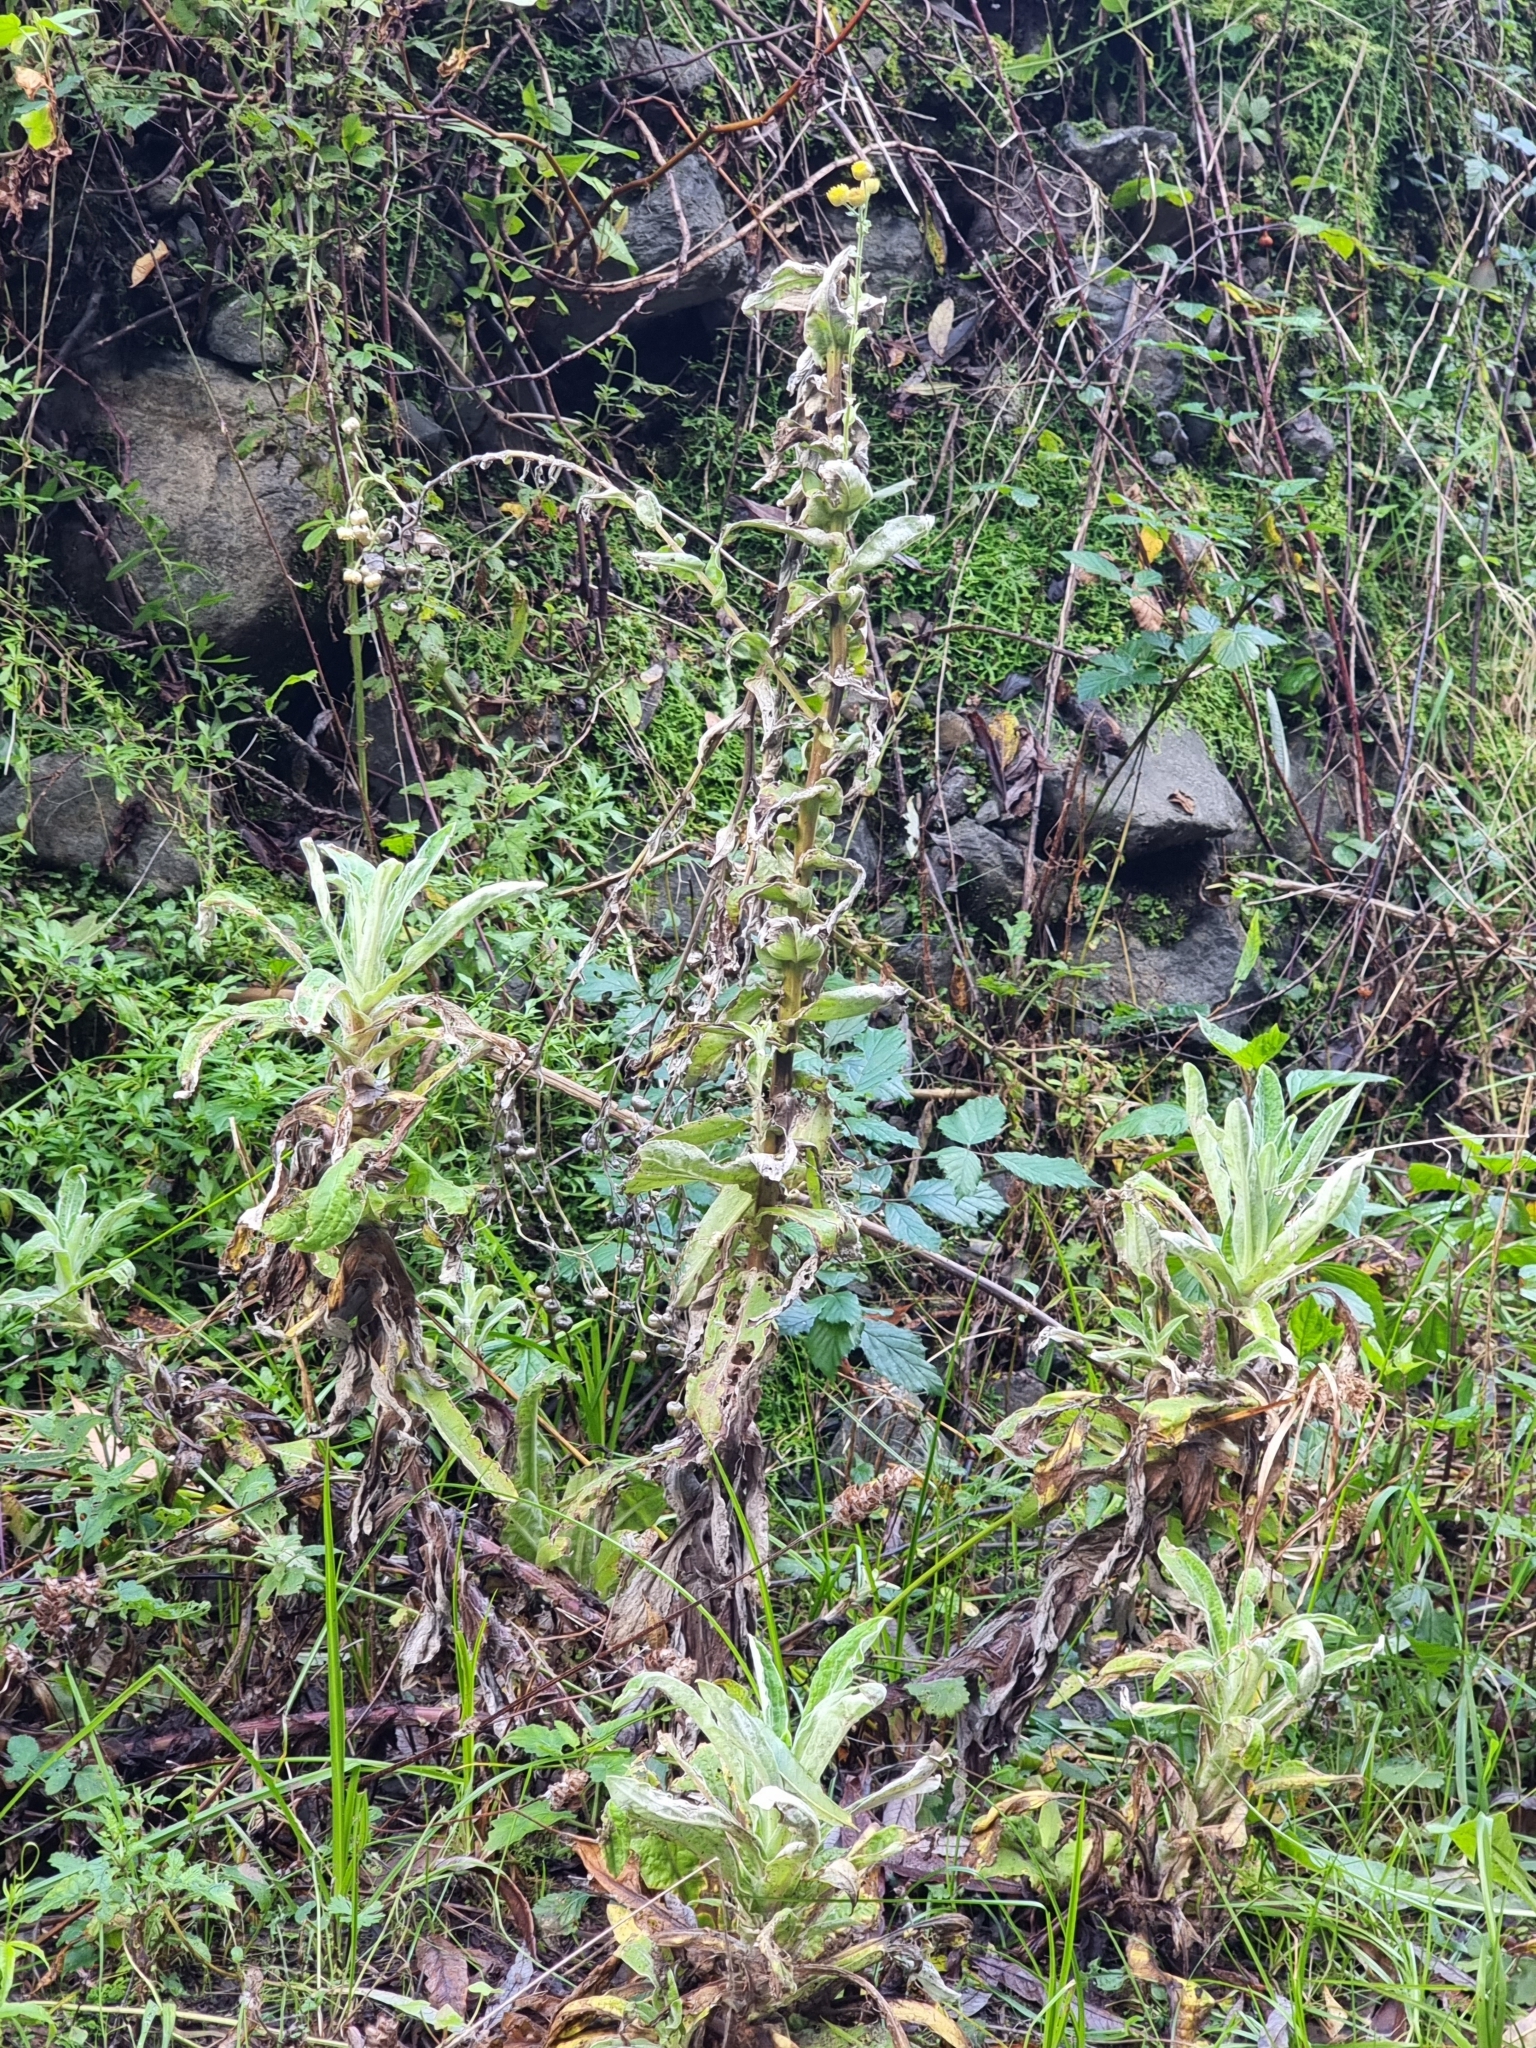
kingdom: Plantae
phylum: Tracheophyta
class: Magnoliopsida
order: Asterales
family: Asteraceae
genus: Helichrysum
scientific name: Helichrysum foetidum
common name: Stinking everlasting
